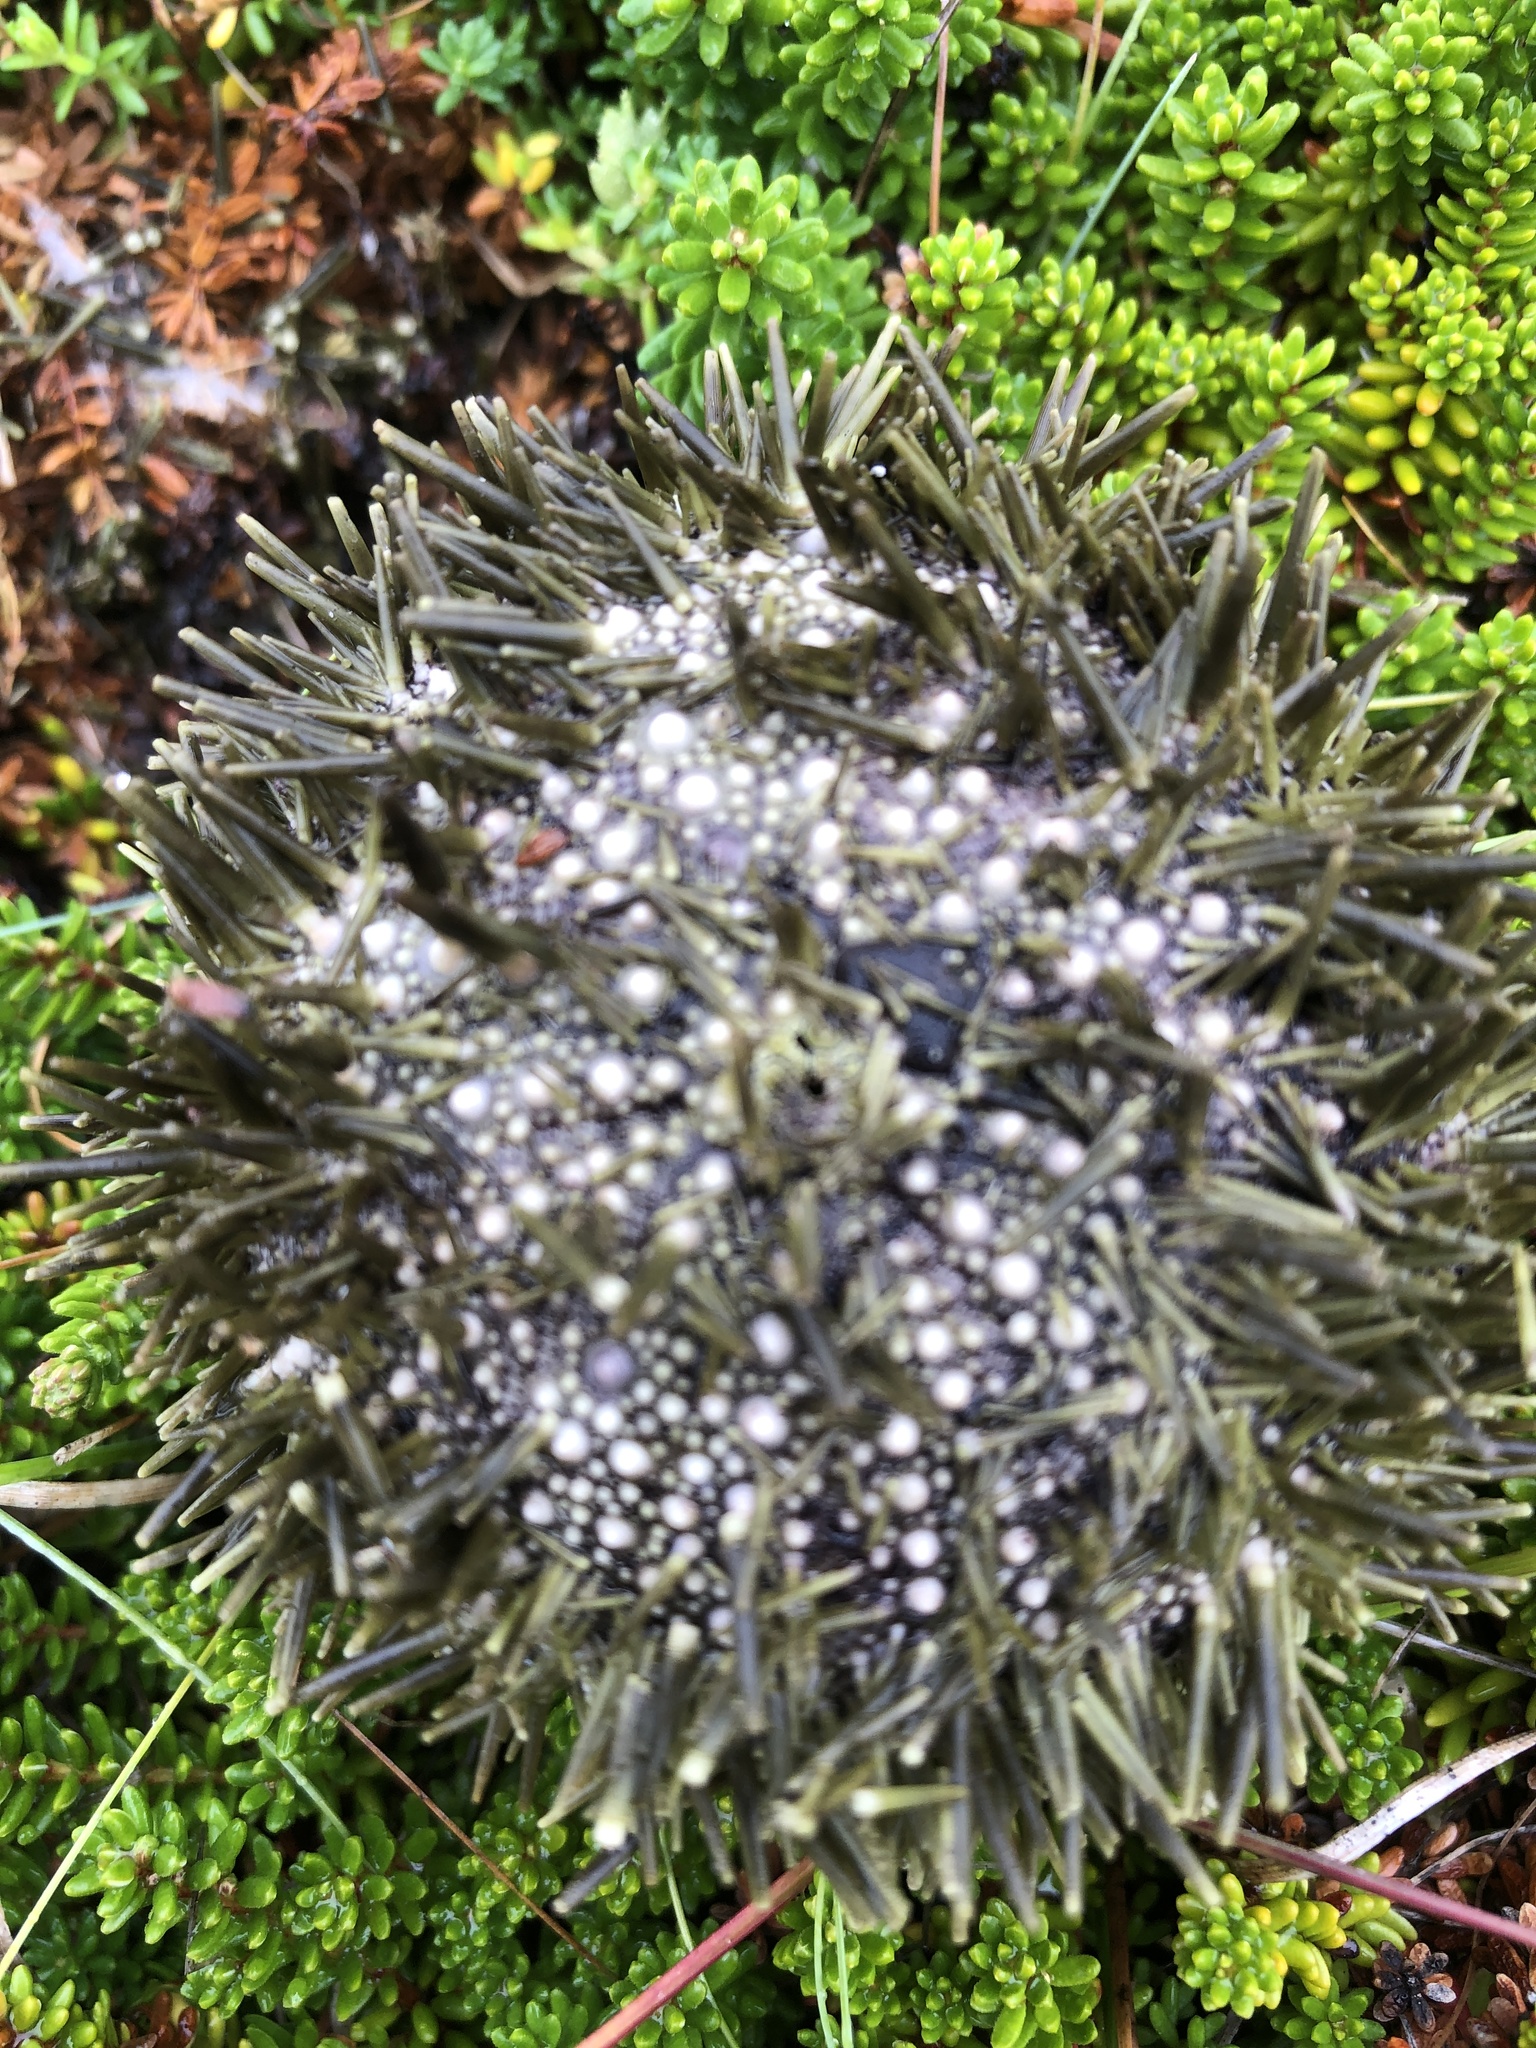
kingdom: Animalia
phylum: Echinodermata
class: Echinoidea
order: Camarodonta
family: Strongylocentrotidae
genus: Strongylocentrotus
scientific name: Strongylocentrotus droebachiensis
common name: Northern sea urchin
